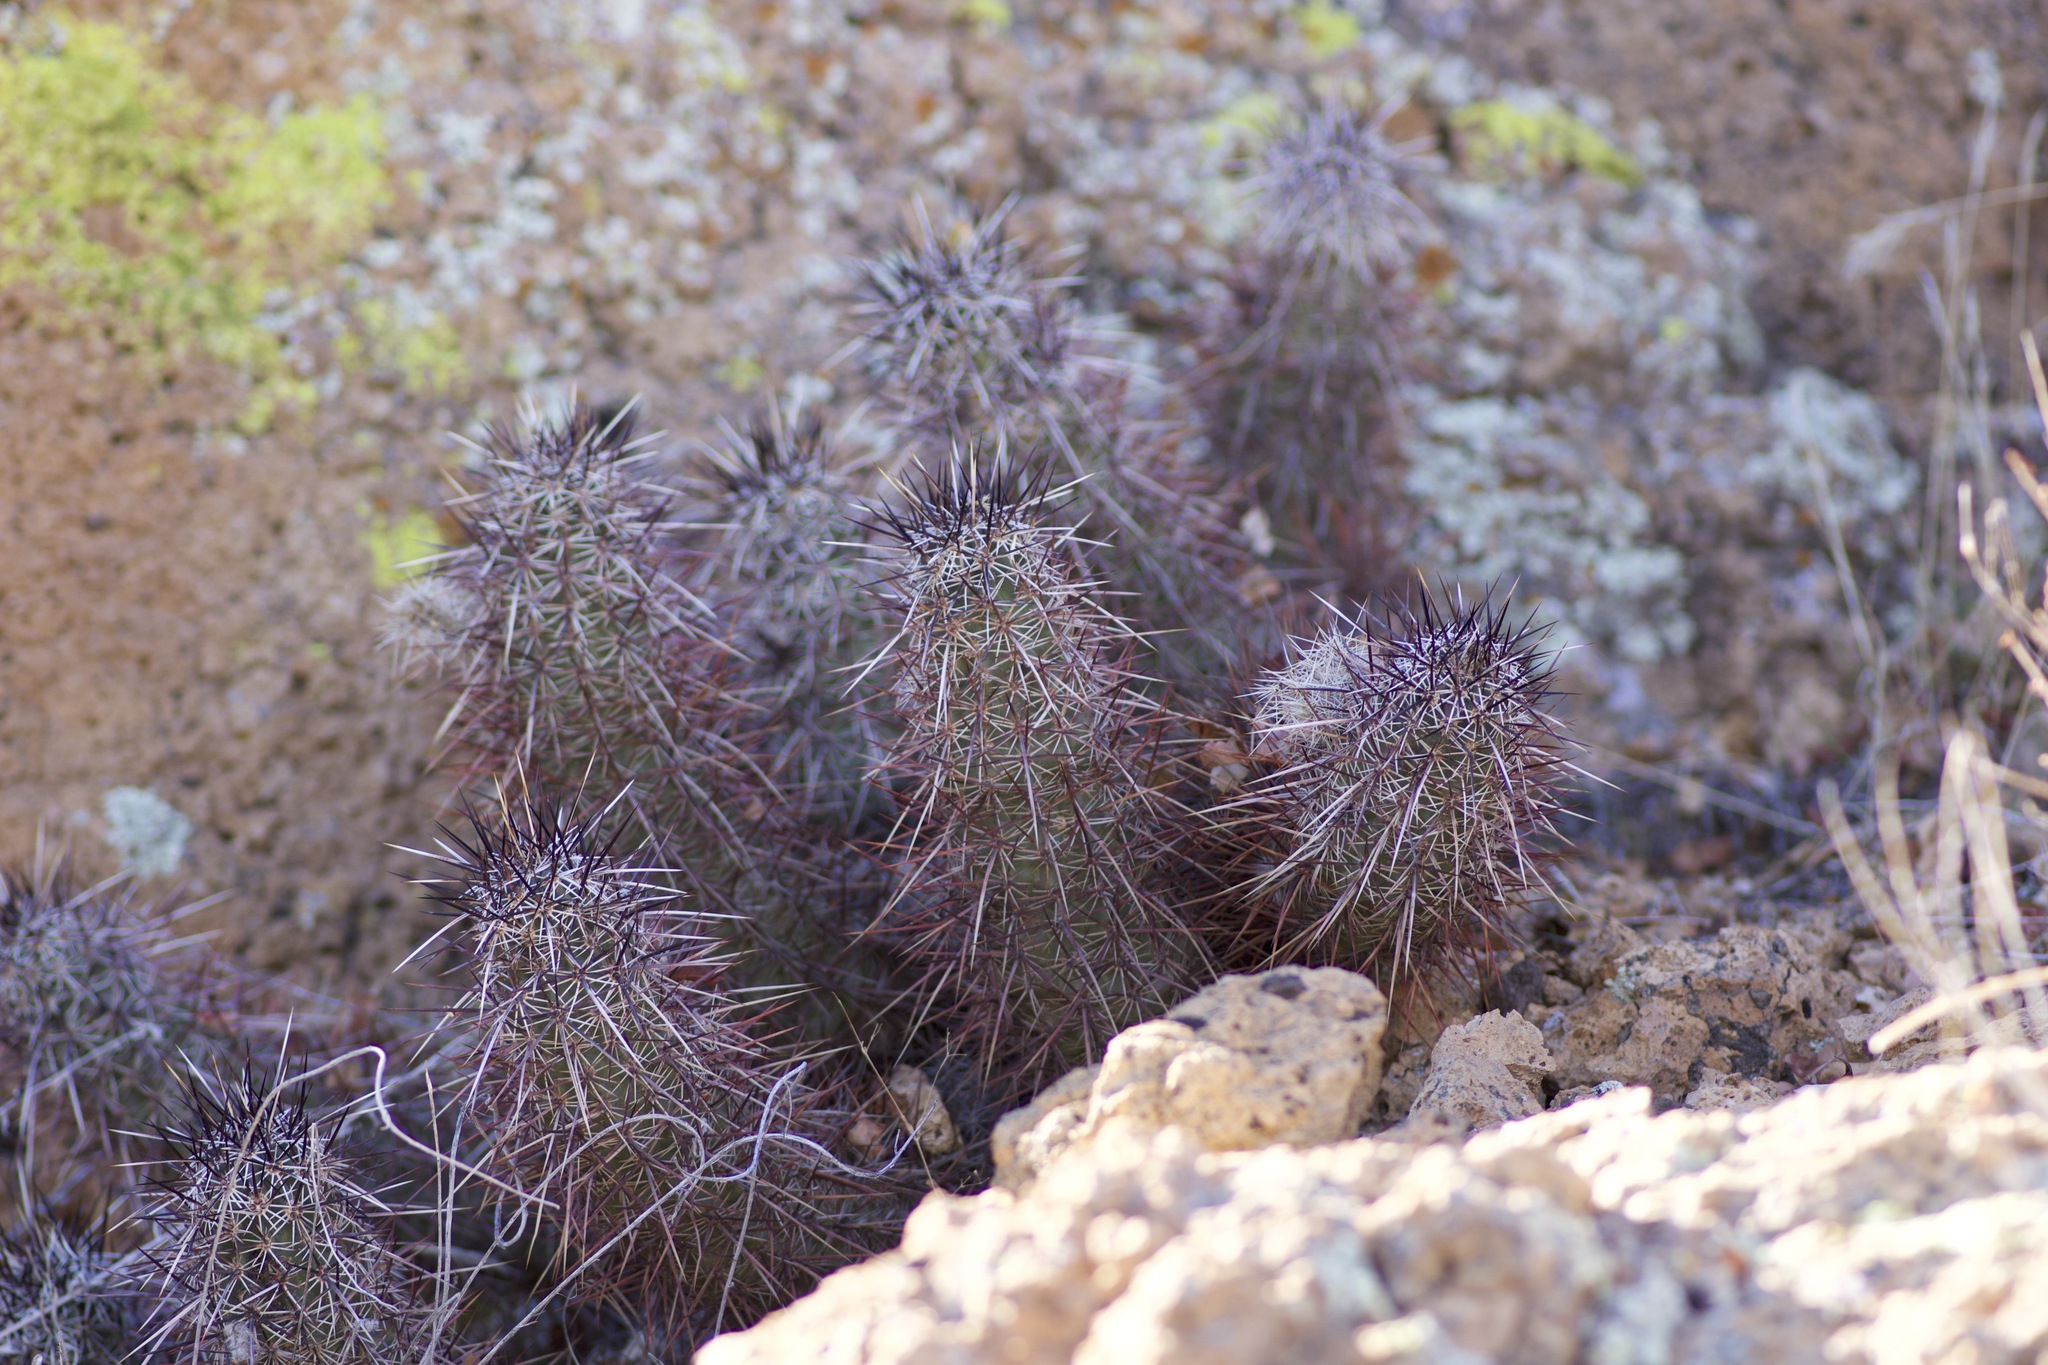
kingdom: Plantae
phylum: Tracheophyta
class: Magnoliopsida
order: Caryophyllales
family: Cactaceae
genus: Echinocereus
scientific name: Echinocereus engelmannii
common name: Engelmann's hedgehog cactus
